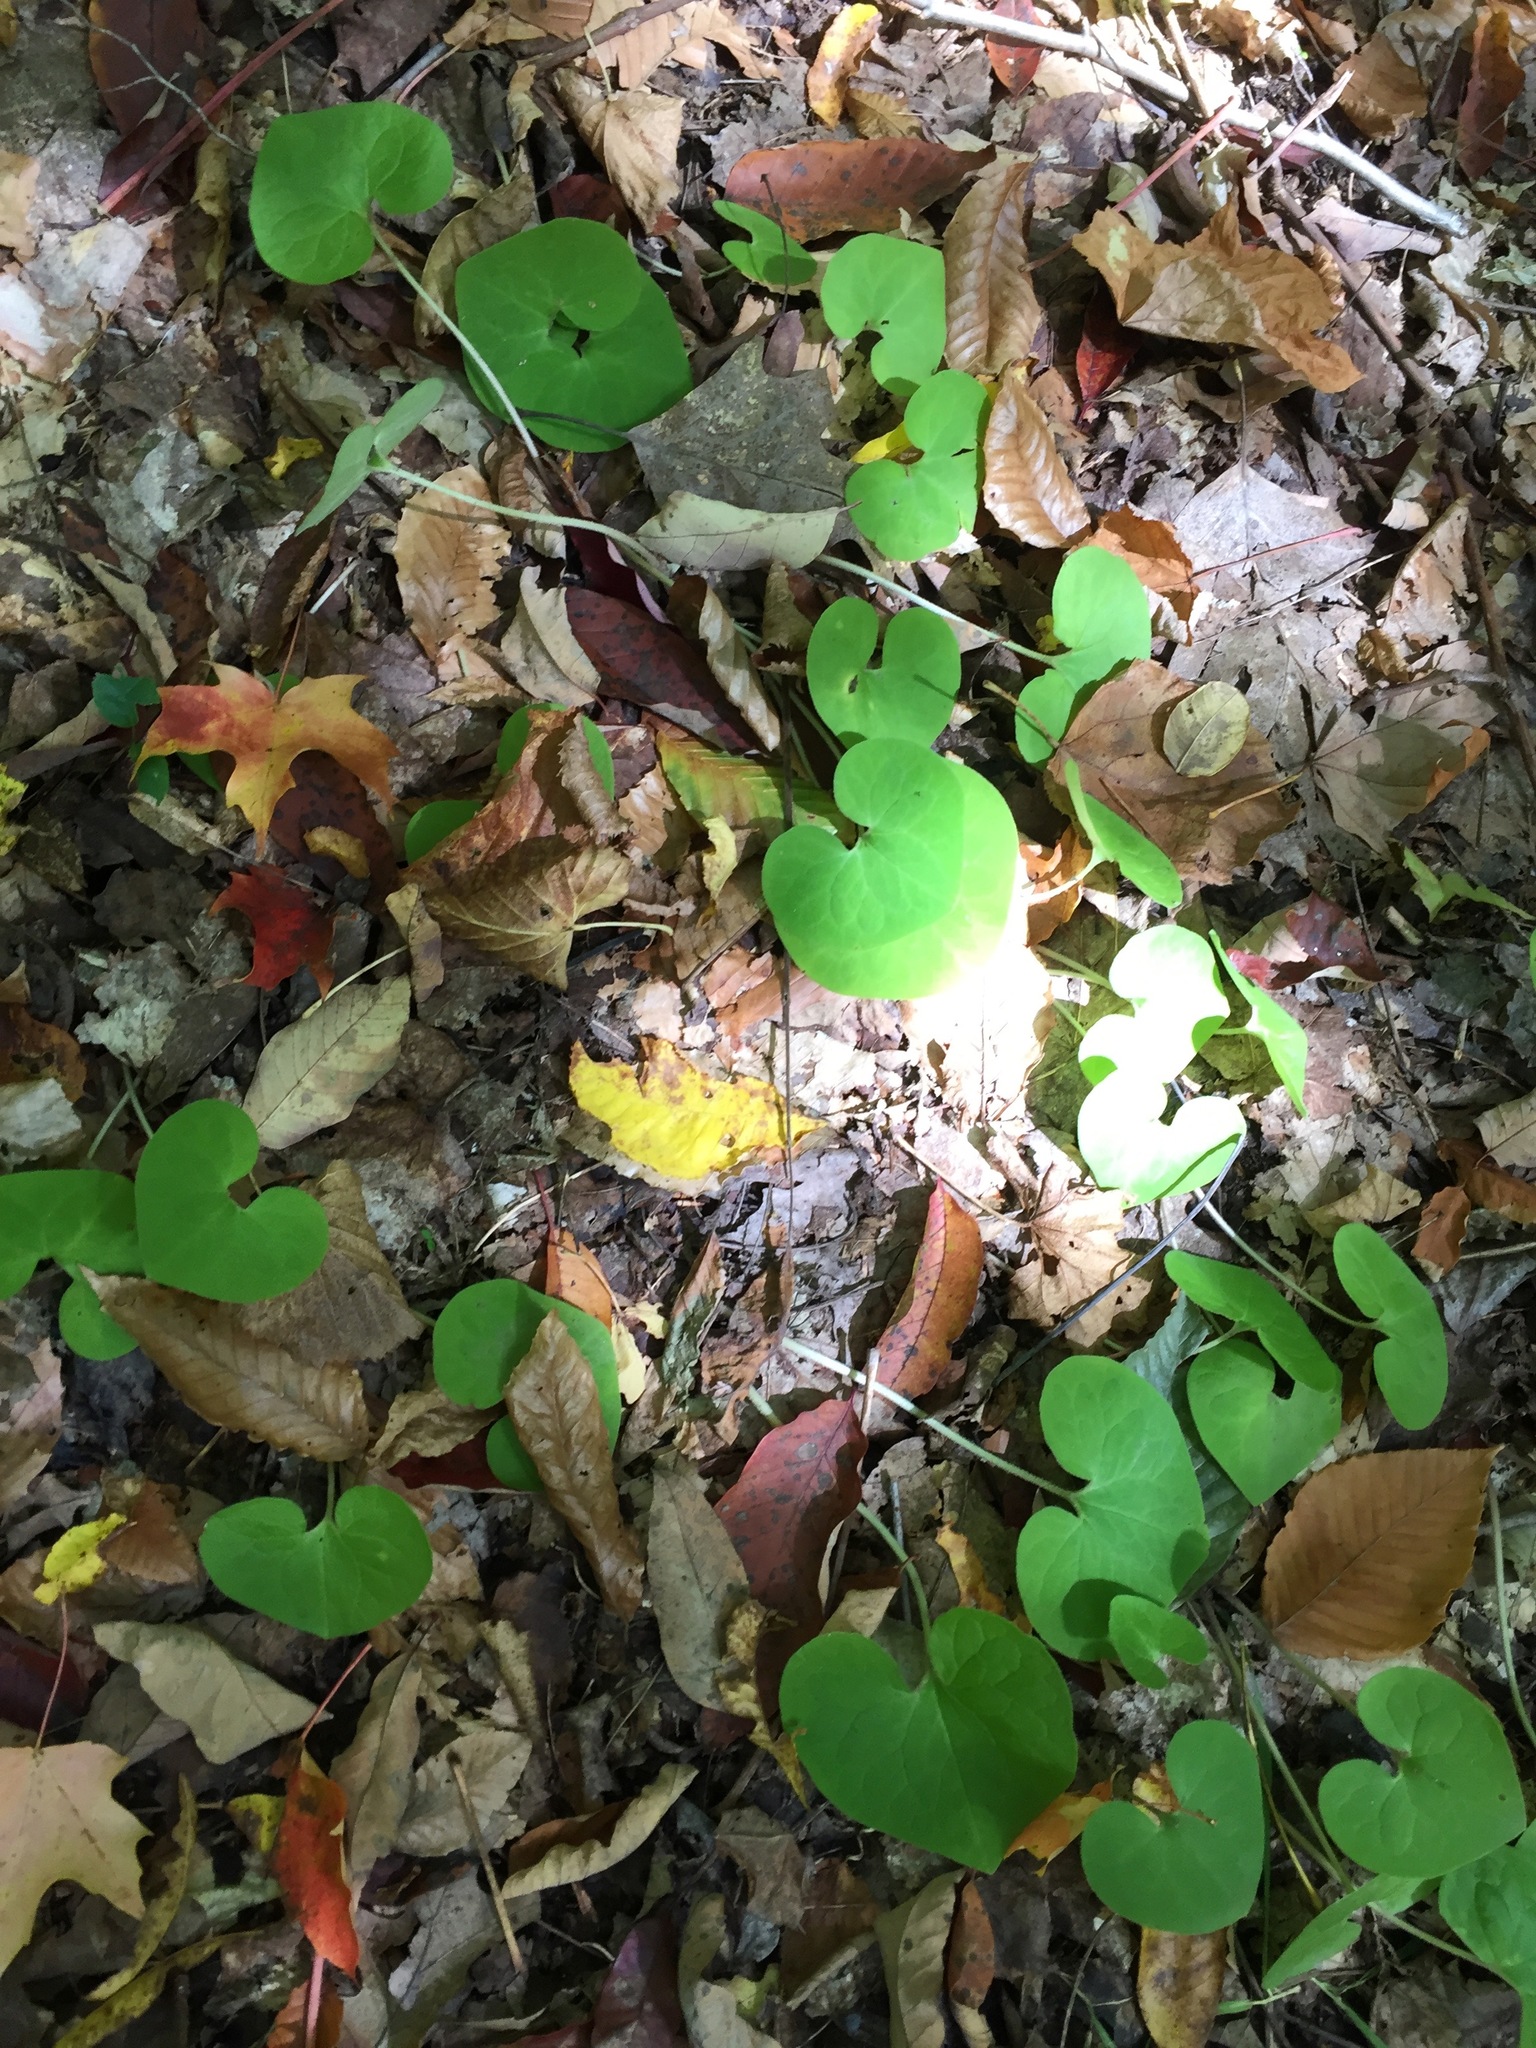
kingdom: Plantae
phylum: Tracheophyta
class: Magnoliopsida
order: Piperales
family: Aristolochiaceae
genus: Asarum
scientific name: Asarum canadense
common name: Wild ginger
